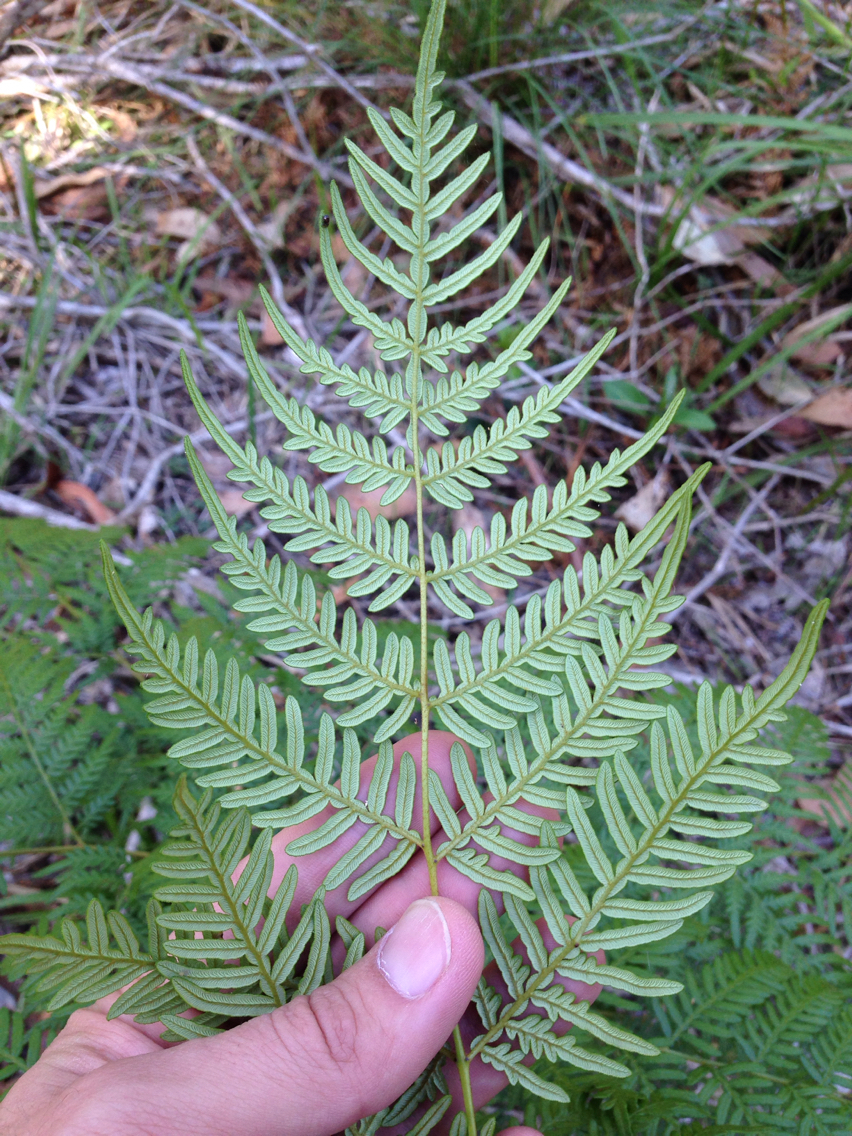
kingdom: Plantae
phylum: Tracheophyta
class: Polypodiopsida
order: Polypodiales
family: Dennstaedtiaceae
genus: Pteridium
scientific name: Pteridium esculentum
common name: Bracken fern
